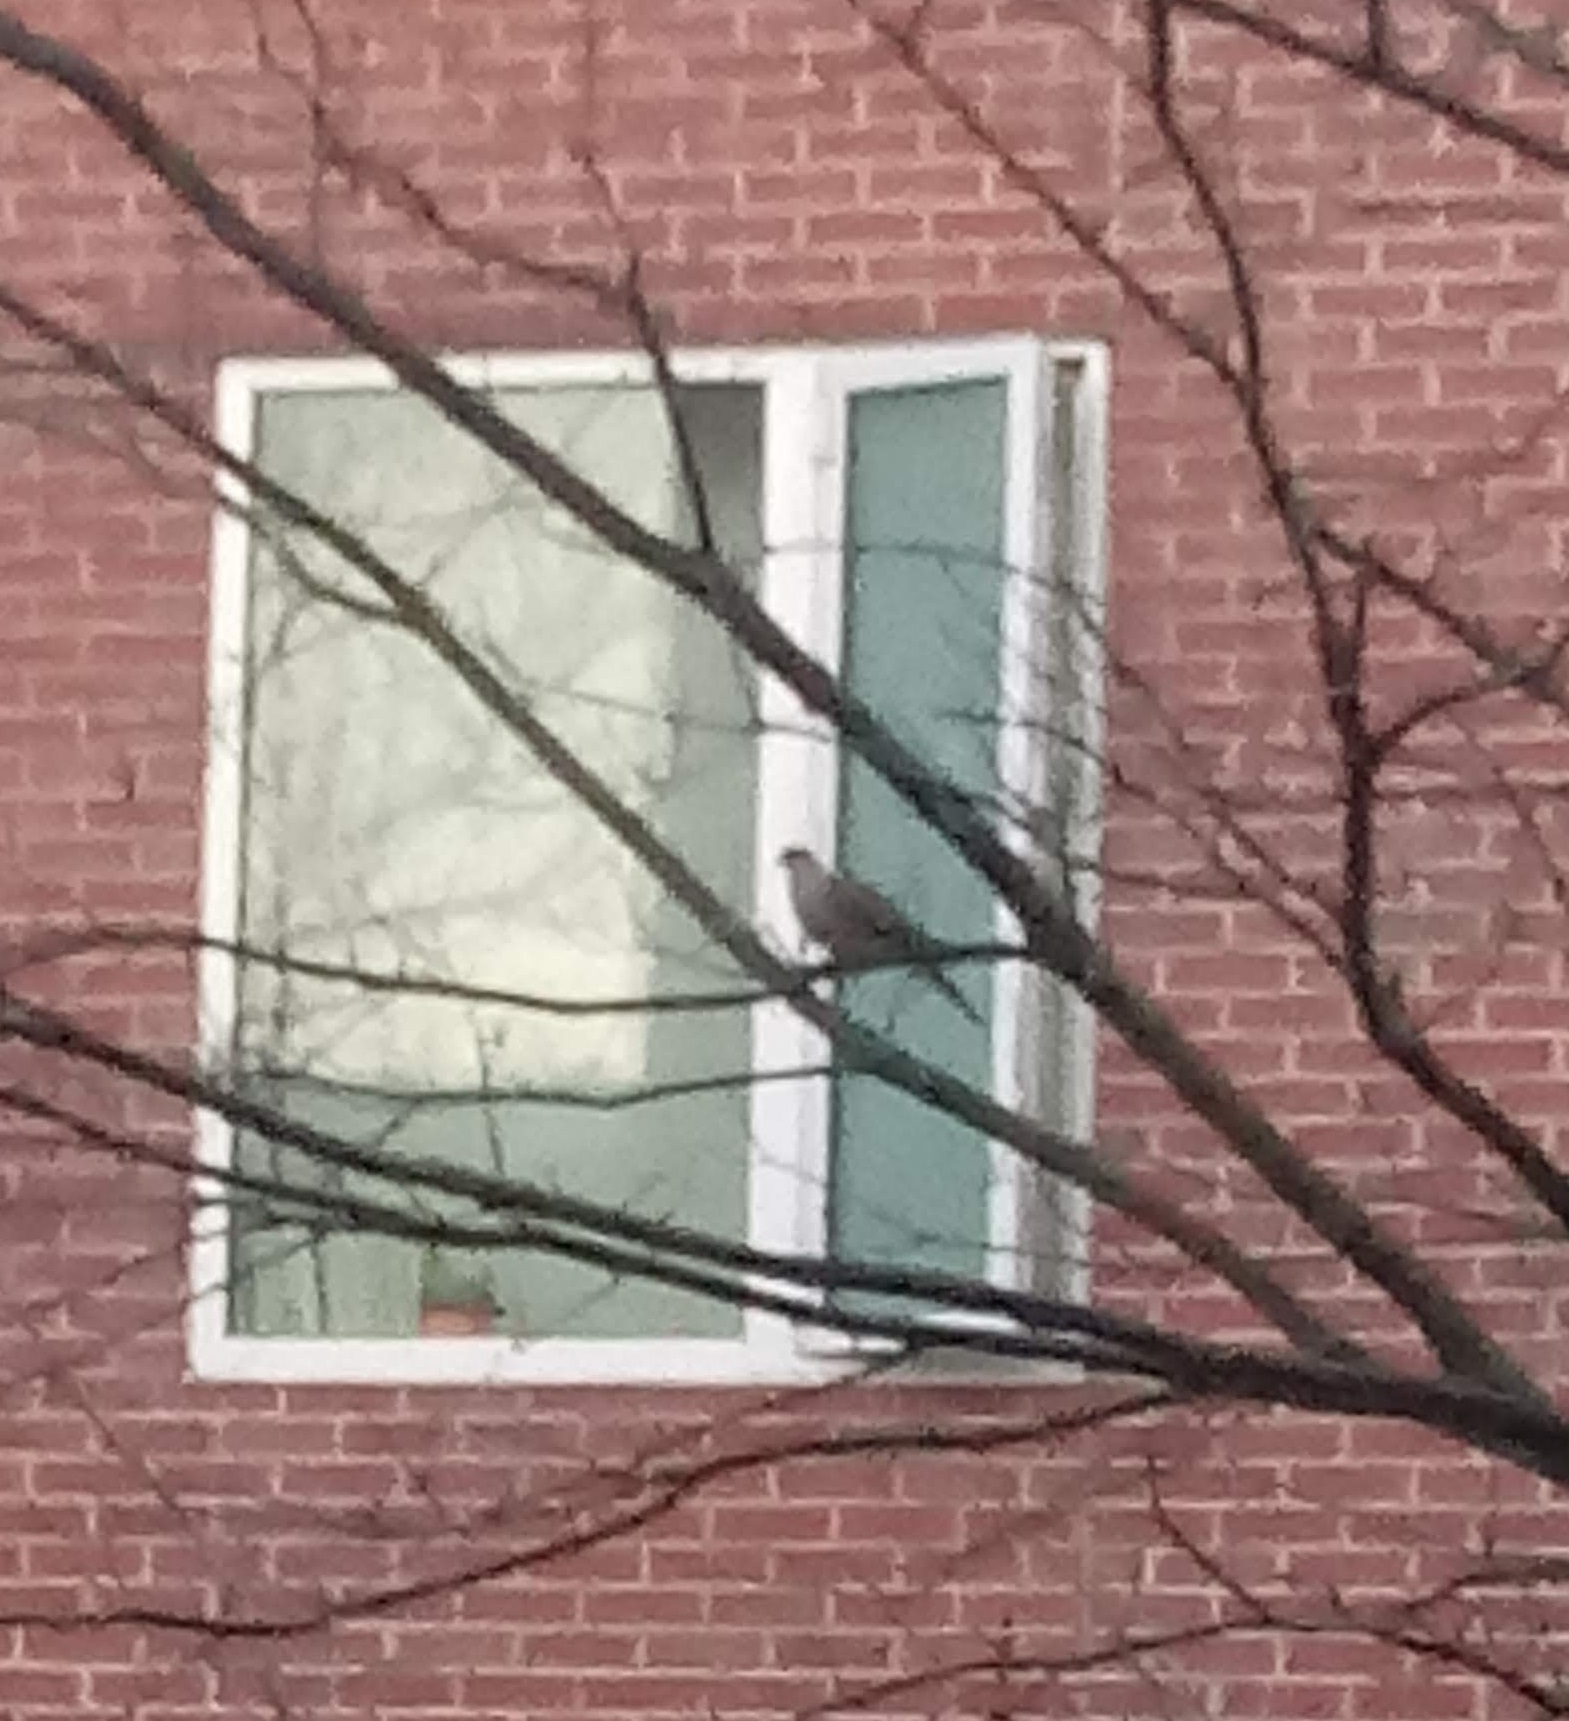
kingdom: Animalia
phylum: Chordata
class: Aves
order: Columbiformes
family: Columbidae
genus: Zenaida
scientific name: Zenaida macroura
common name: Mourning dove
